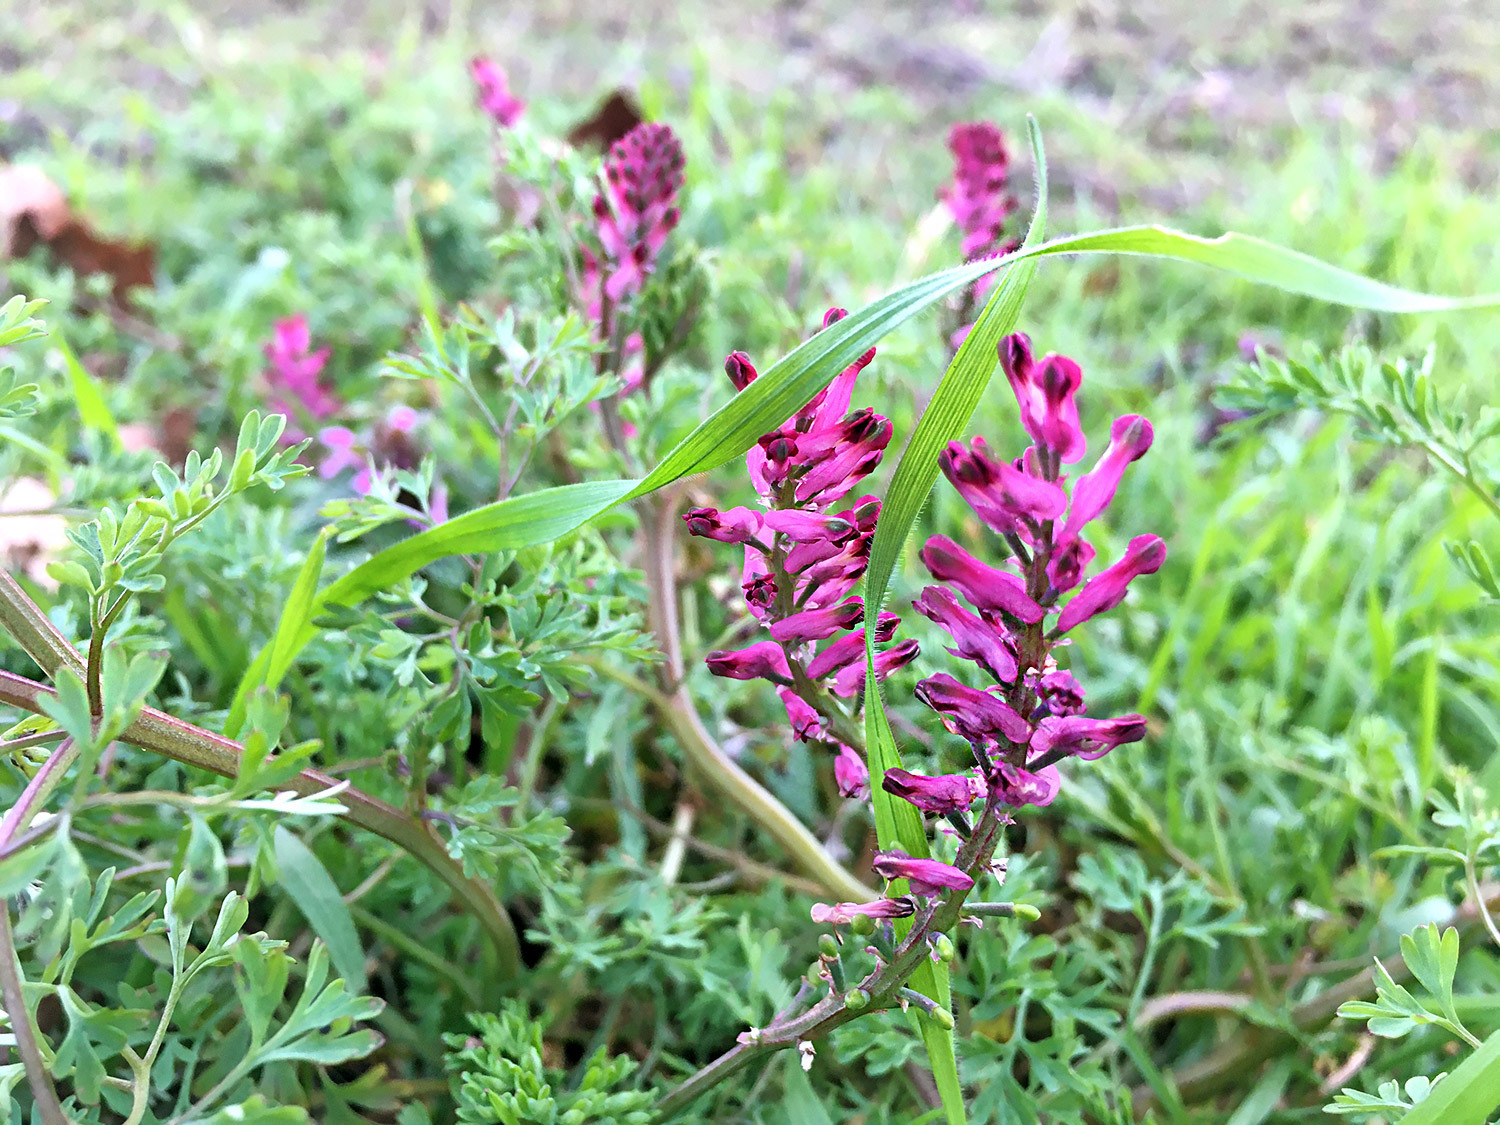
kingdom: Plantae
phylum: Tracheophyta
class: Magnoliopsida
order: Ranunculales
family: Papaveraceae
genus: Fumaria
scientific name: Fumaria officinalis
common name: Common fumitory
